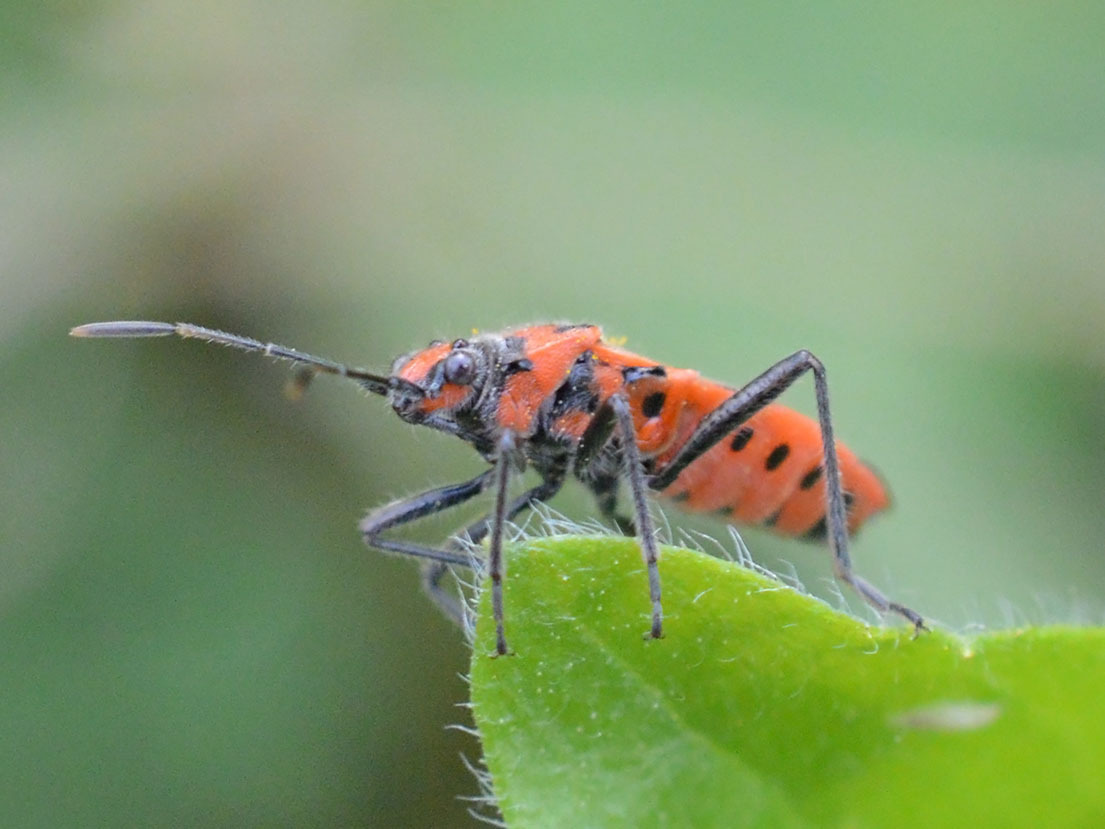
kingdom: Animalia
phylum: Arthropoda
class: Insecta
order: Hemiptera
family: Rhopalidae
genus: Corizus
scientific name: Corizus hyoscyami
